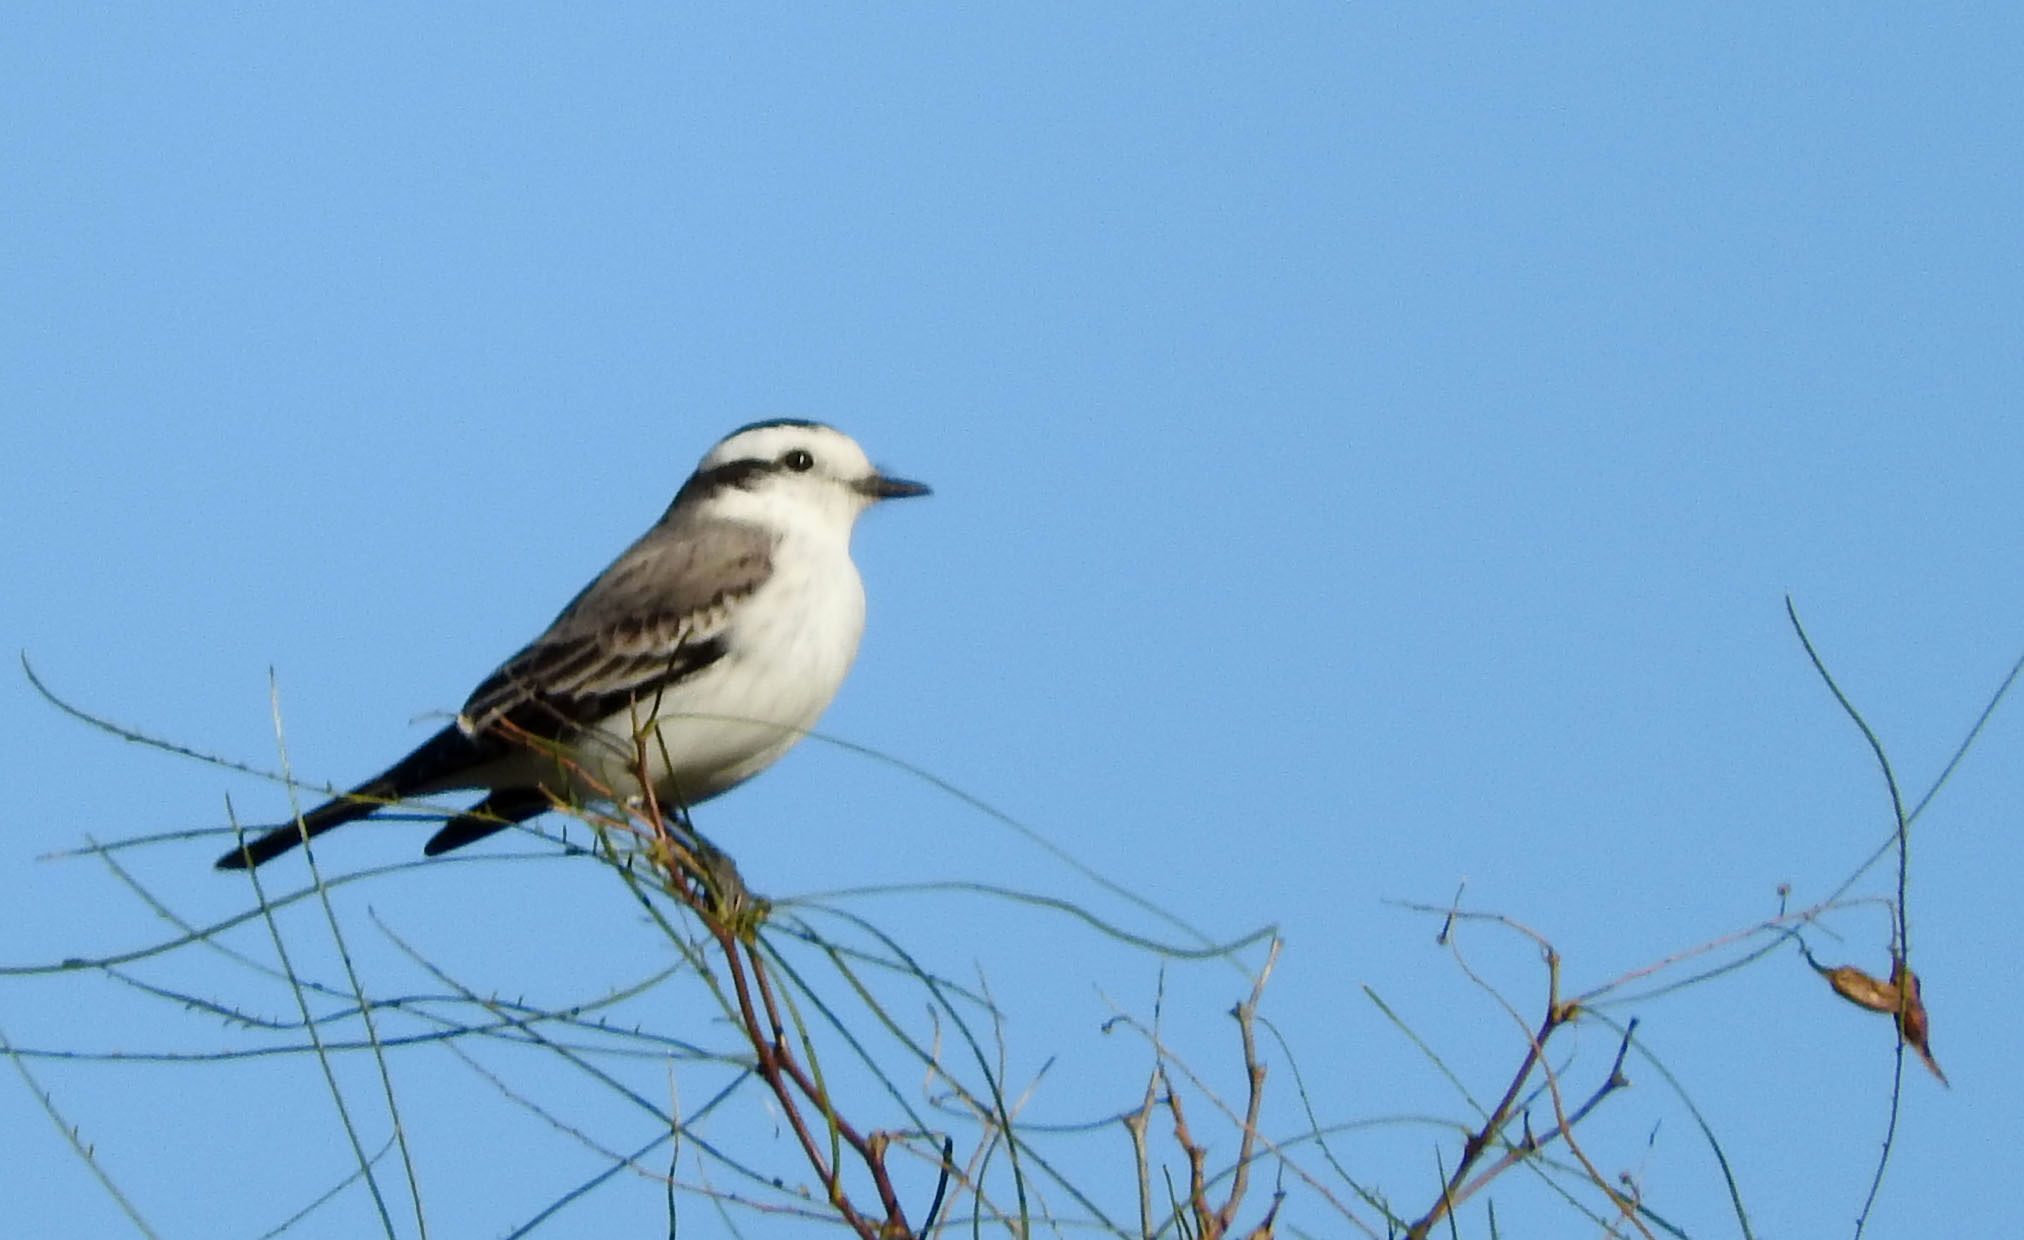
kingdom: Animalia
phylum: Chordata
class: Aves
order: Passeriformes
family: Tyrannidae
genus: Xolmis
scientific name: Xolmis coronatus
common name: Black-crowned monjita
